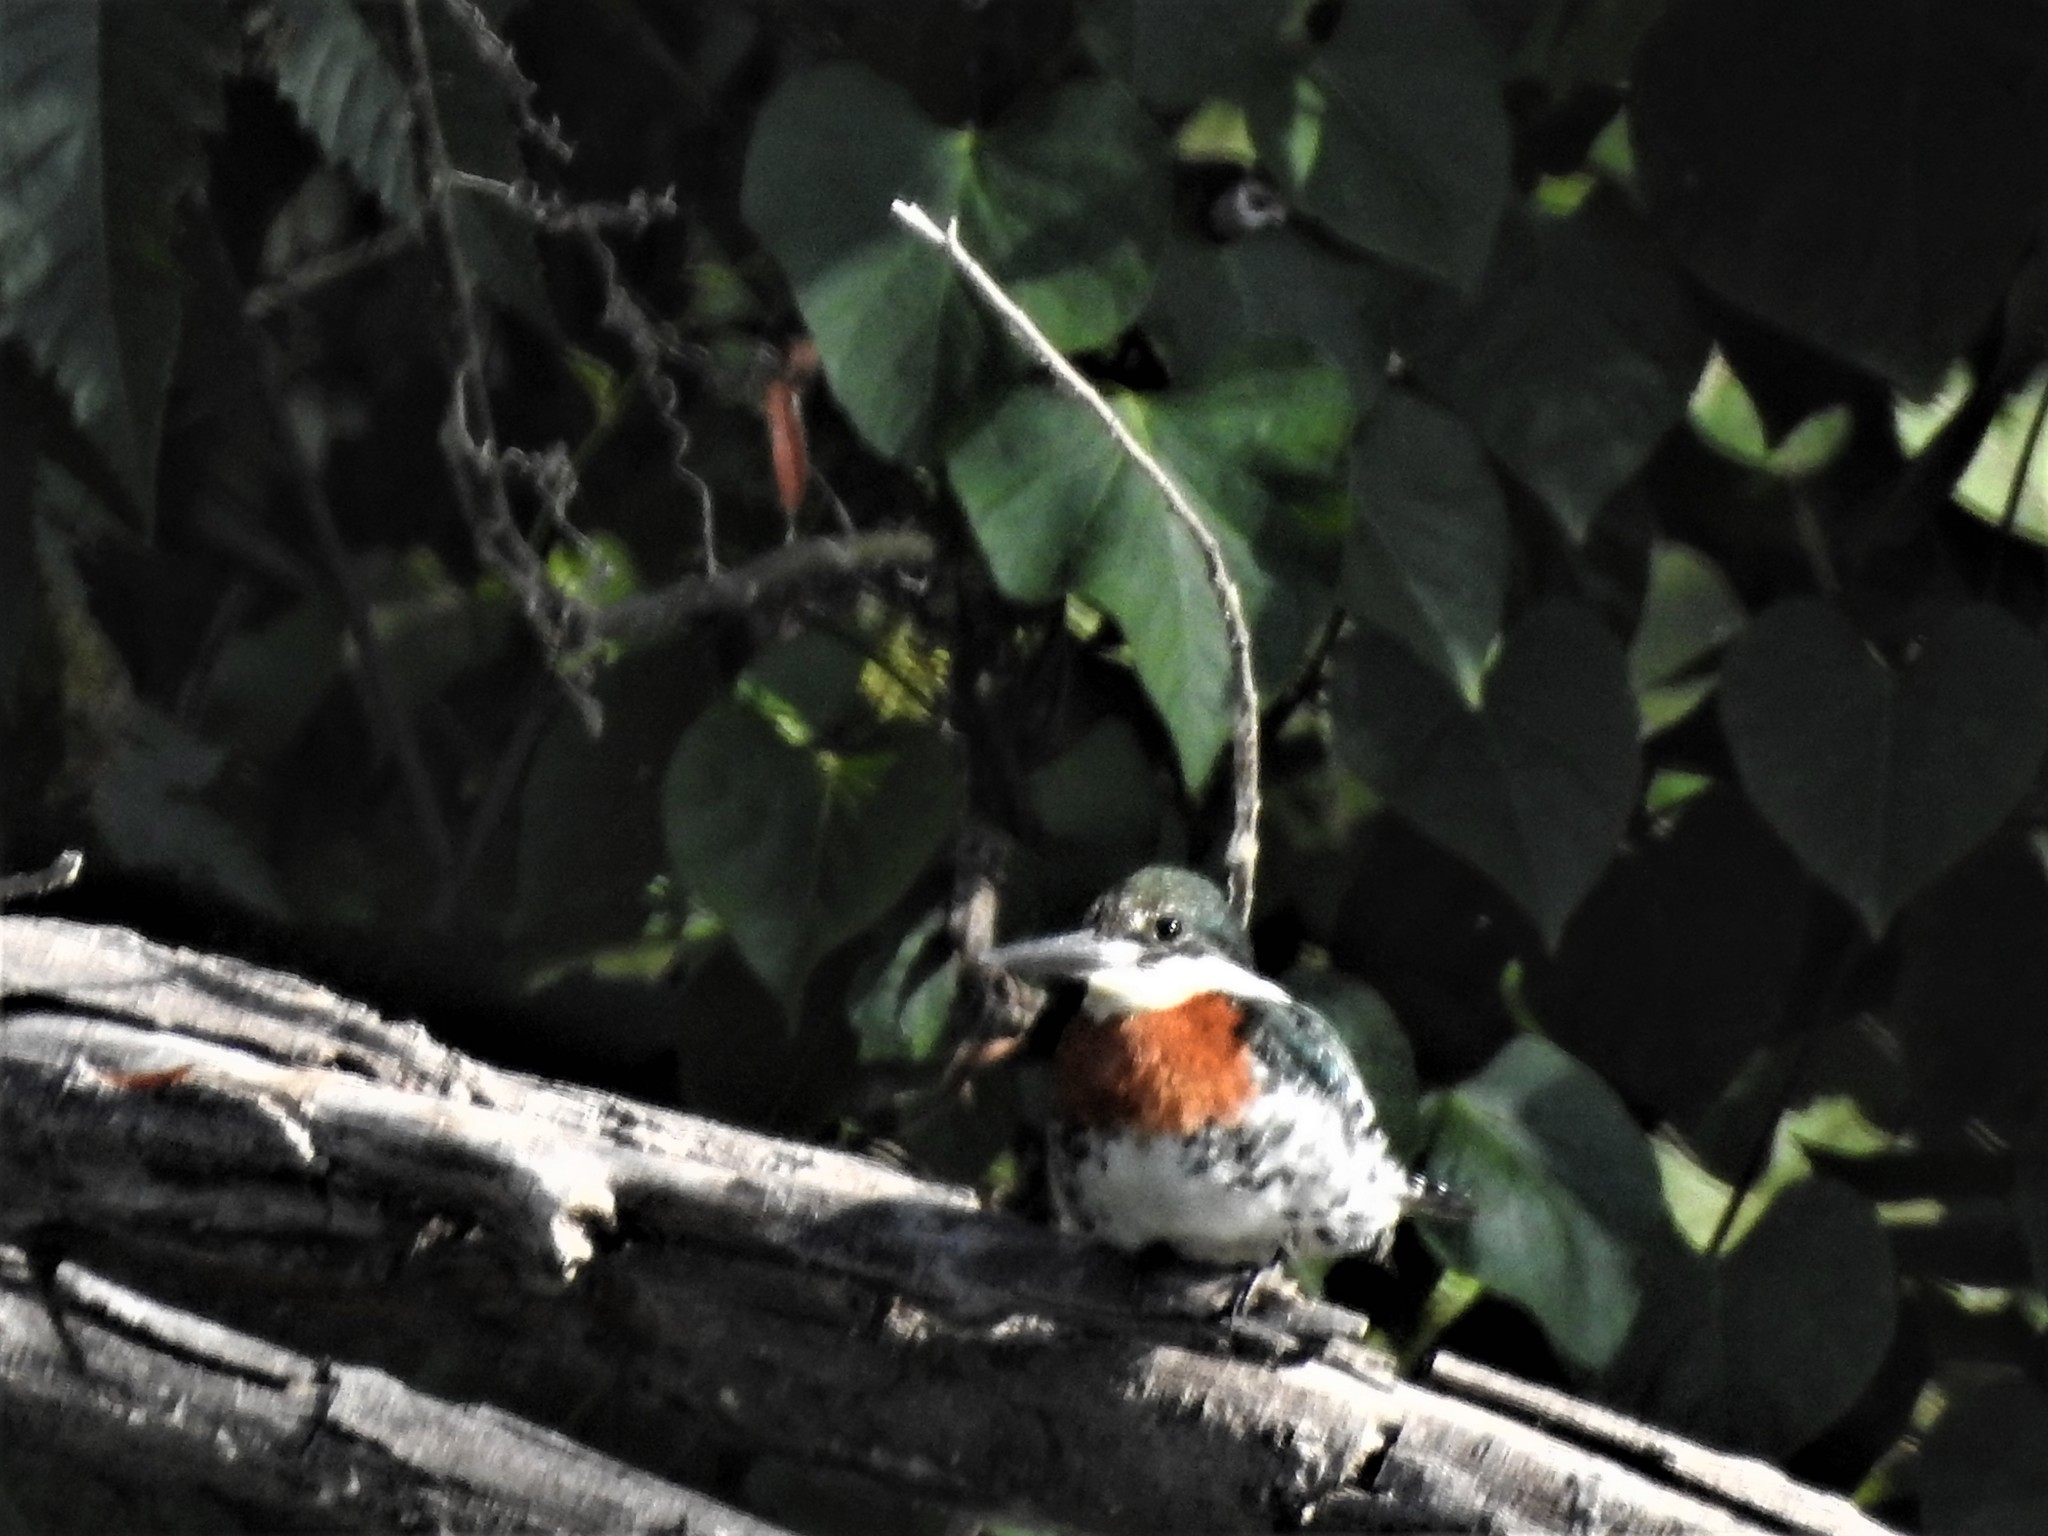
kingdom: Animalia
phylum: Chordata
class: Aves
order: Coraciiformes
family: Alcedinidae
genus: Chloroceryle
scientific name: Chloroceryle americana
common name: Green kingfisher
